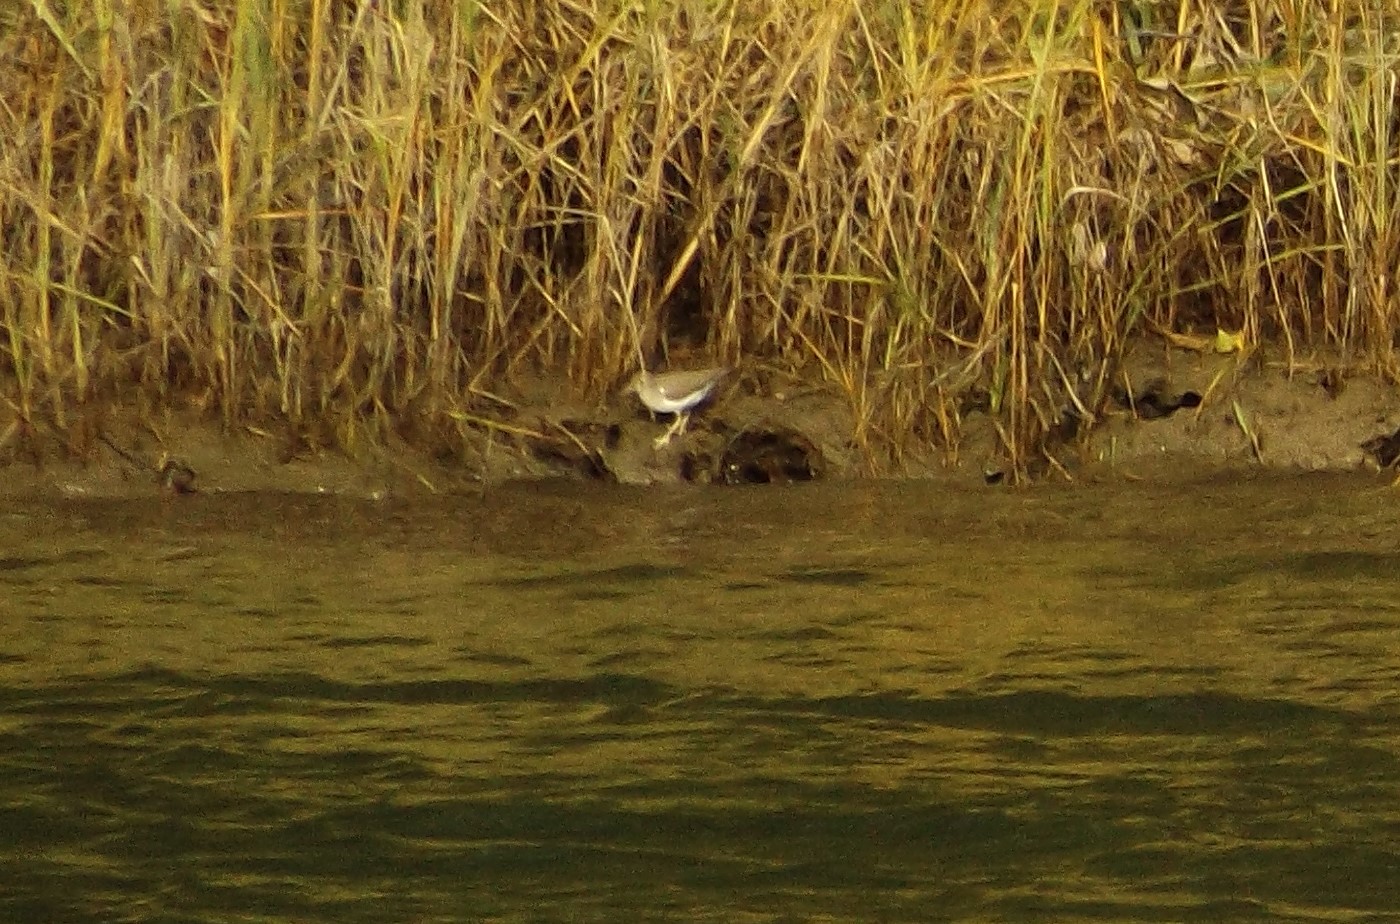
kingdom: Animalia
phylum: Chordata
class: Aves
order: Charadriiformes
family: Scolopacidae
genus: Actitis
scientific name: Actitis macularius
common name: Spotted sandpiper
